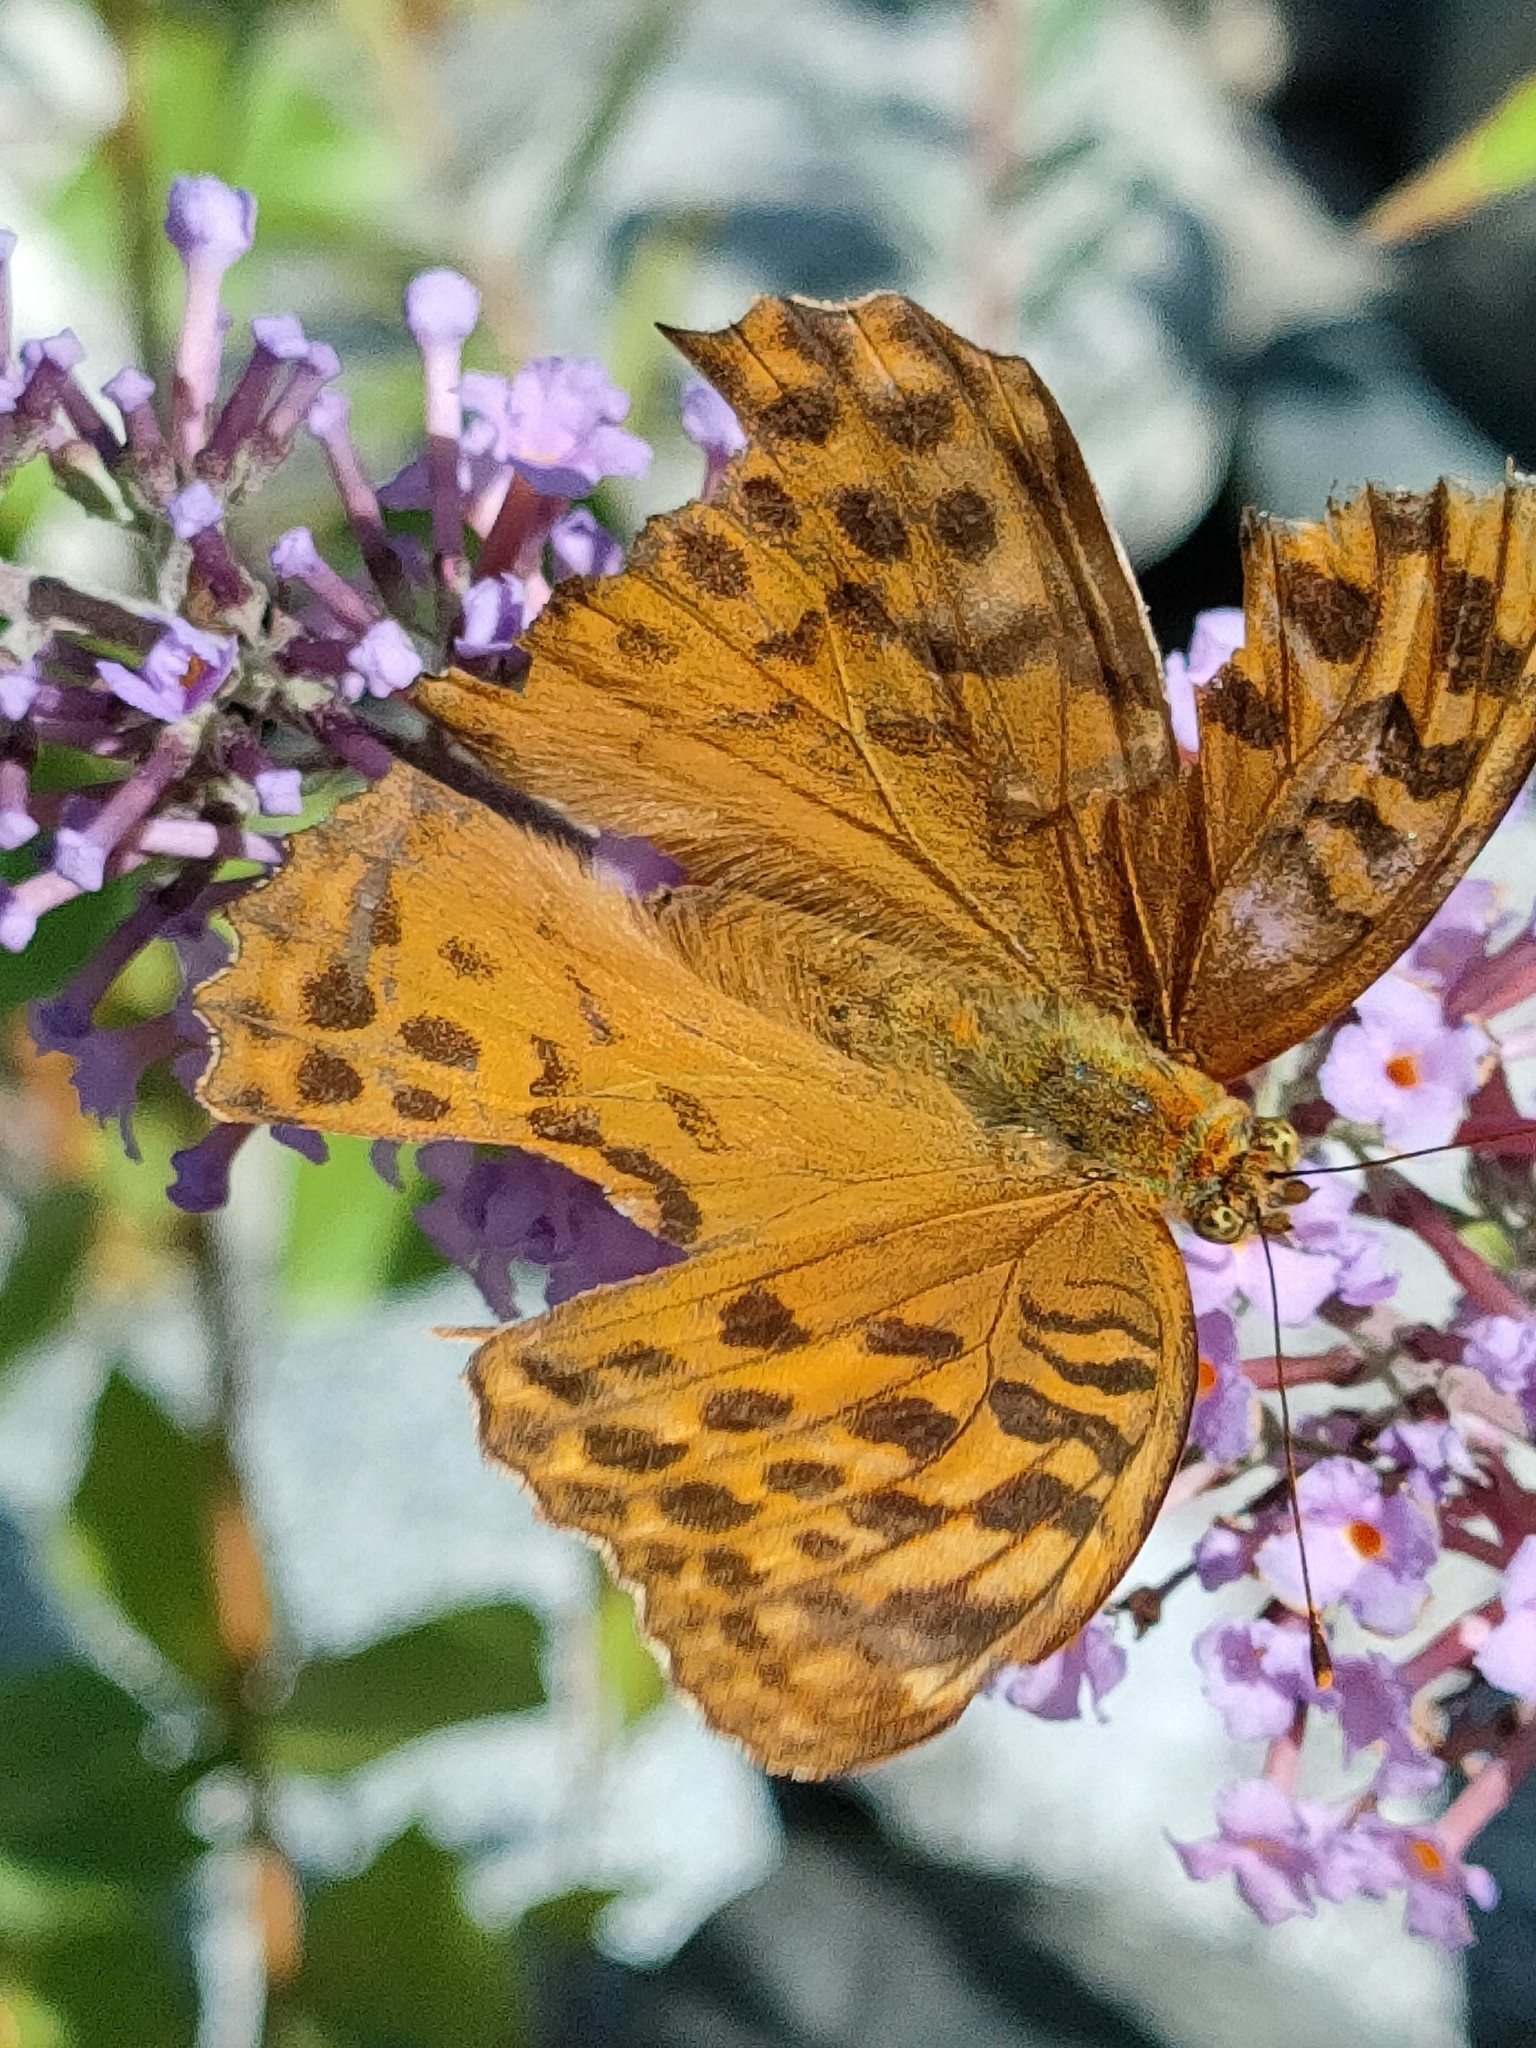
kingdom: Animalia
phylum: Arthropoda
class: Insecta
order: Lepidoptera
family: Nymphalidae
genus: Argynnis
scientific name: Argynnis paphia
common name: Silver-washed fritillary
